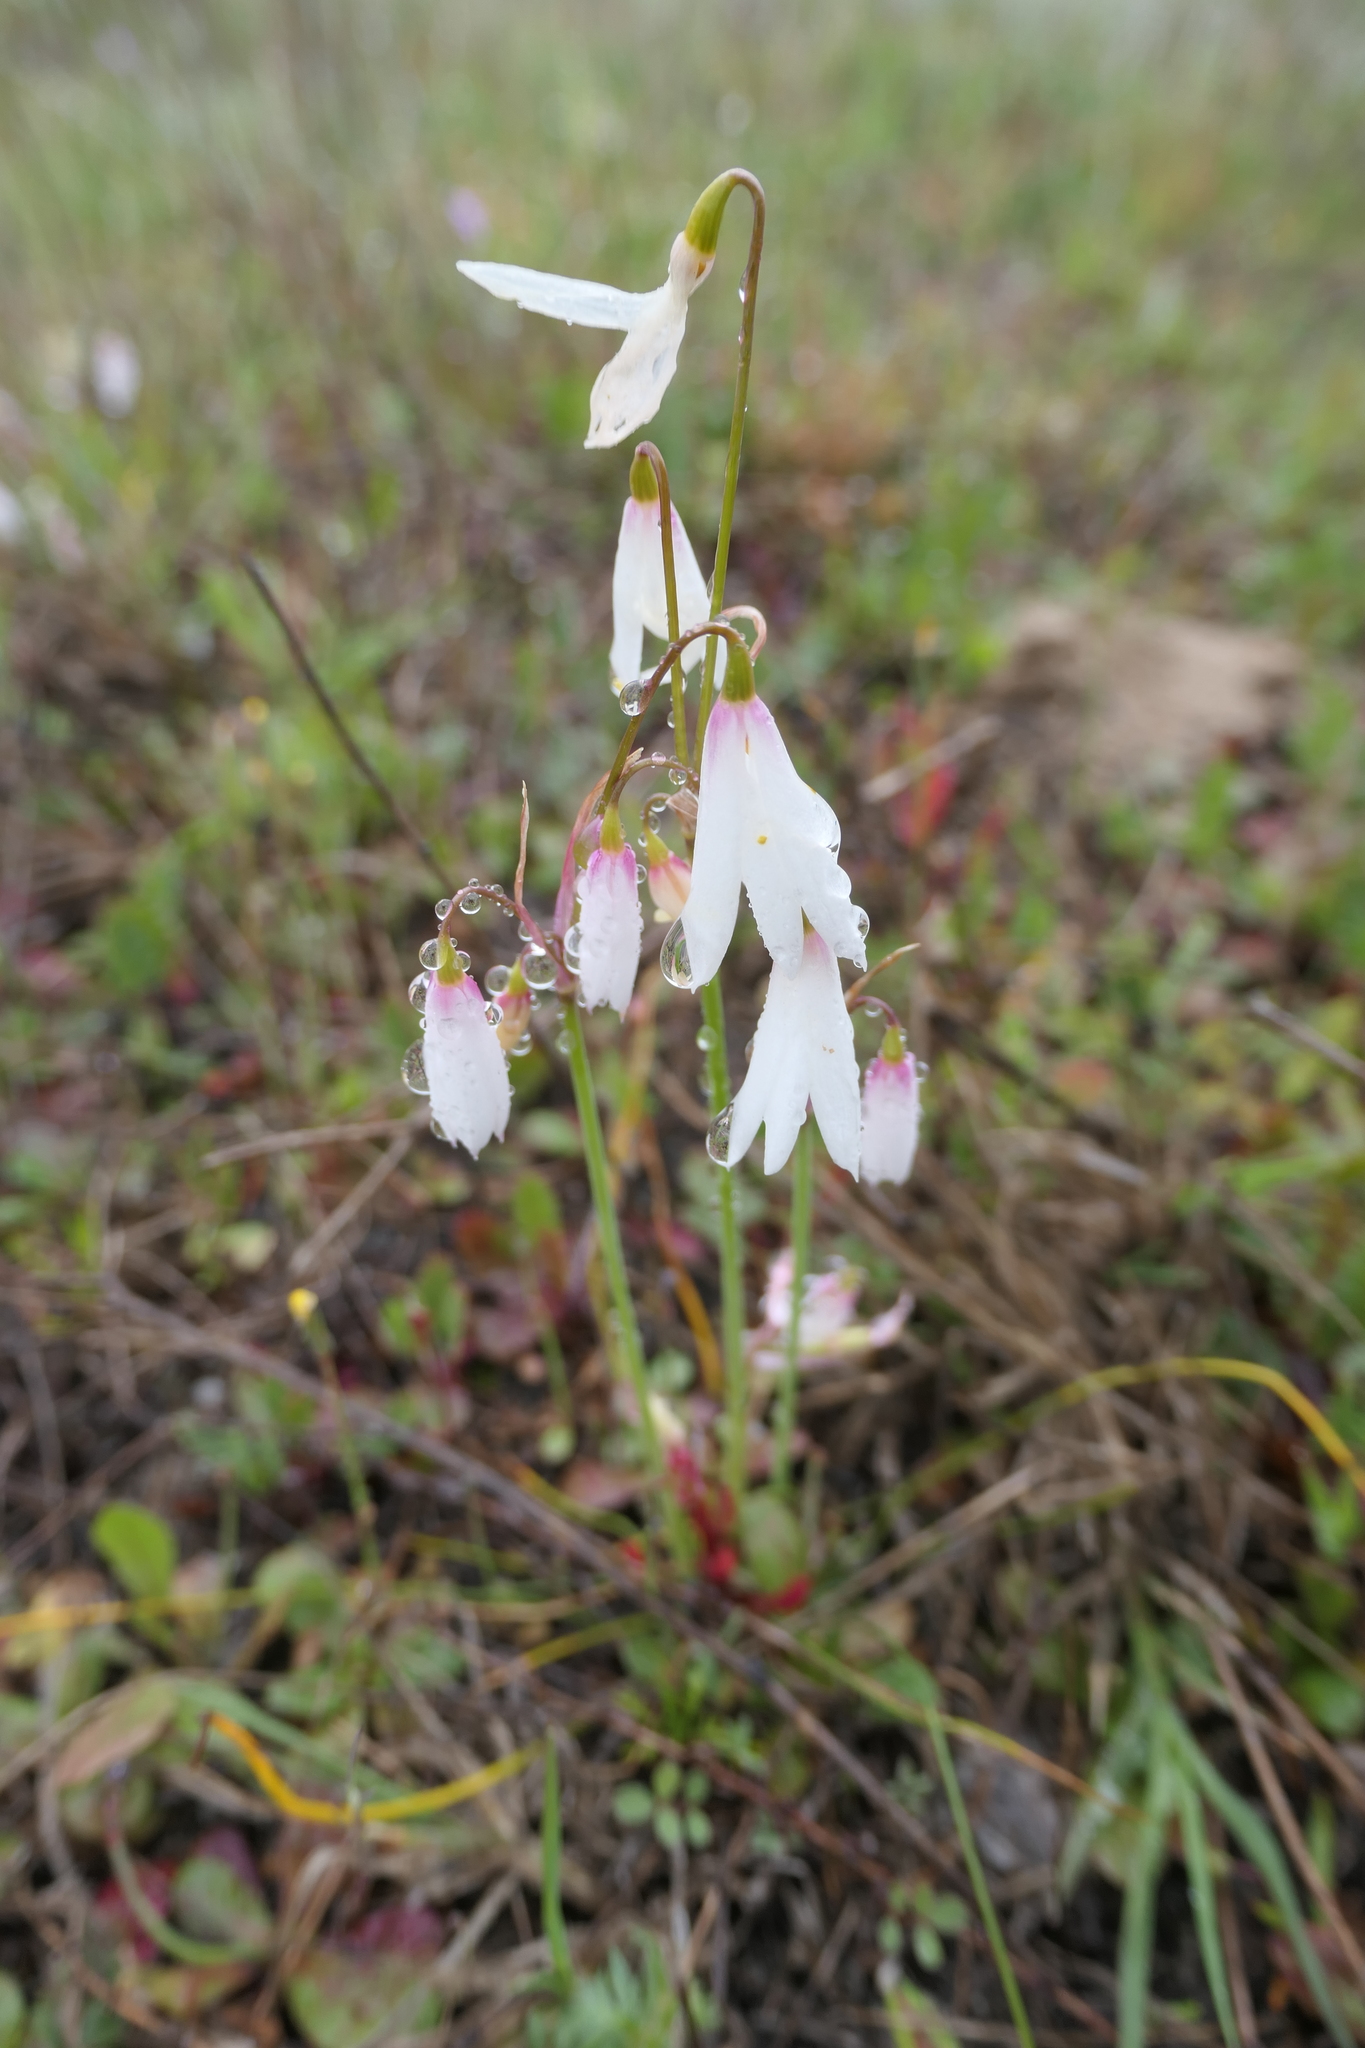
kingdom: Plantae
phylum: Tracheophyta
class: Liliopsida
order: Asparagales
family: Amaryllidaceae
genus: Acis
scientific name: Acis trichophylla
